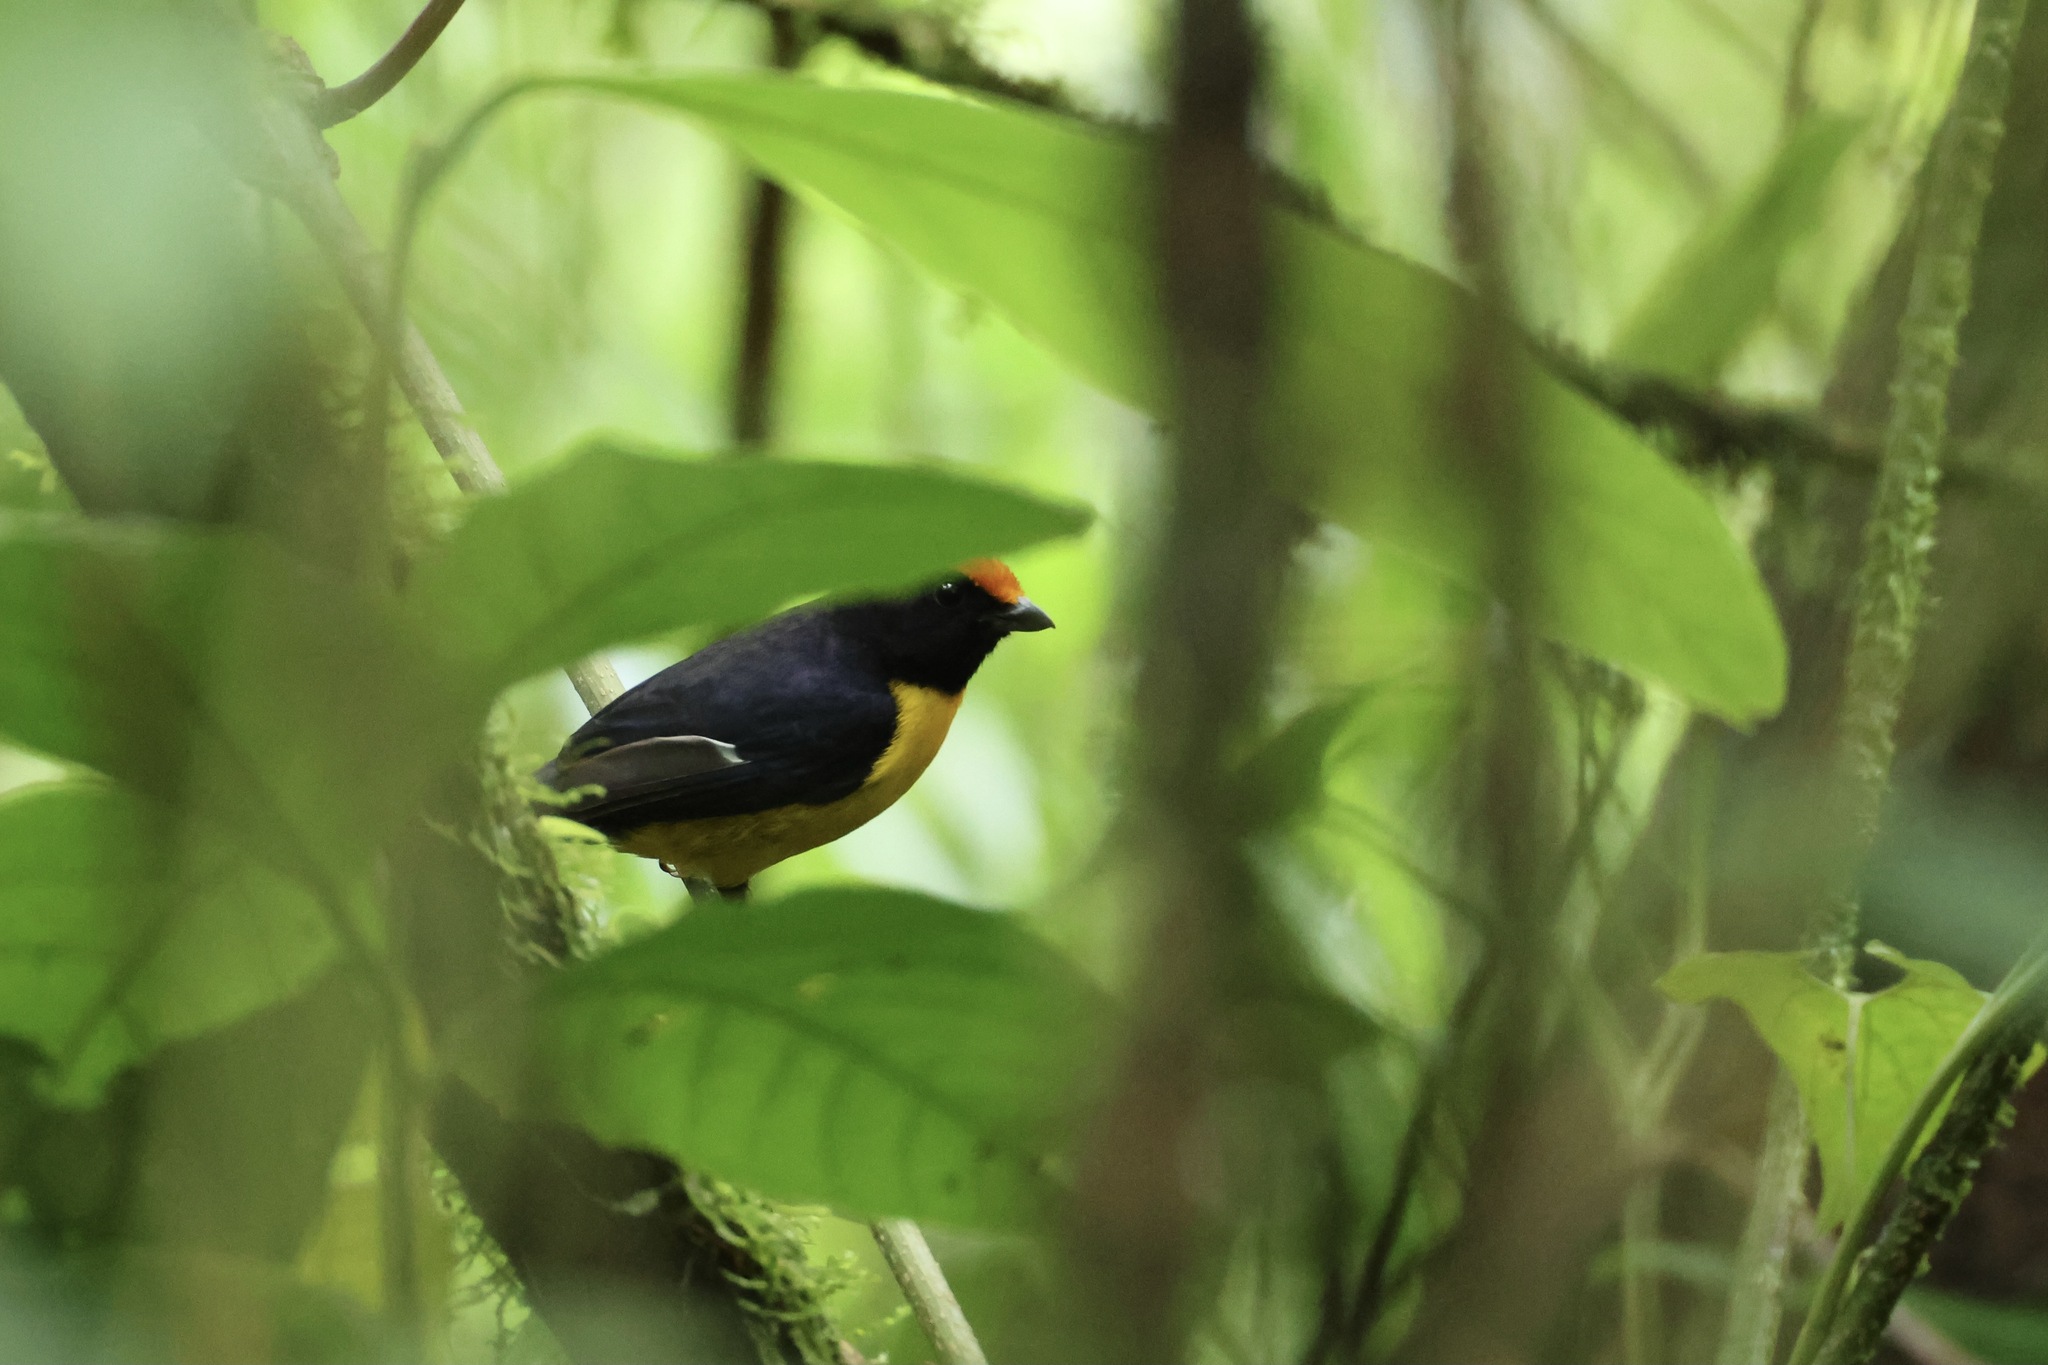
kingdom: Animalia
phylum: Chordata
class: Aves
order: Passeriformes
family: Fringillidae
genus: Euphonia
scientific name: Euphonia anneae
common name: Tawny-capped euphonia
